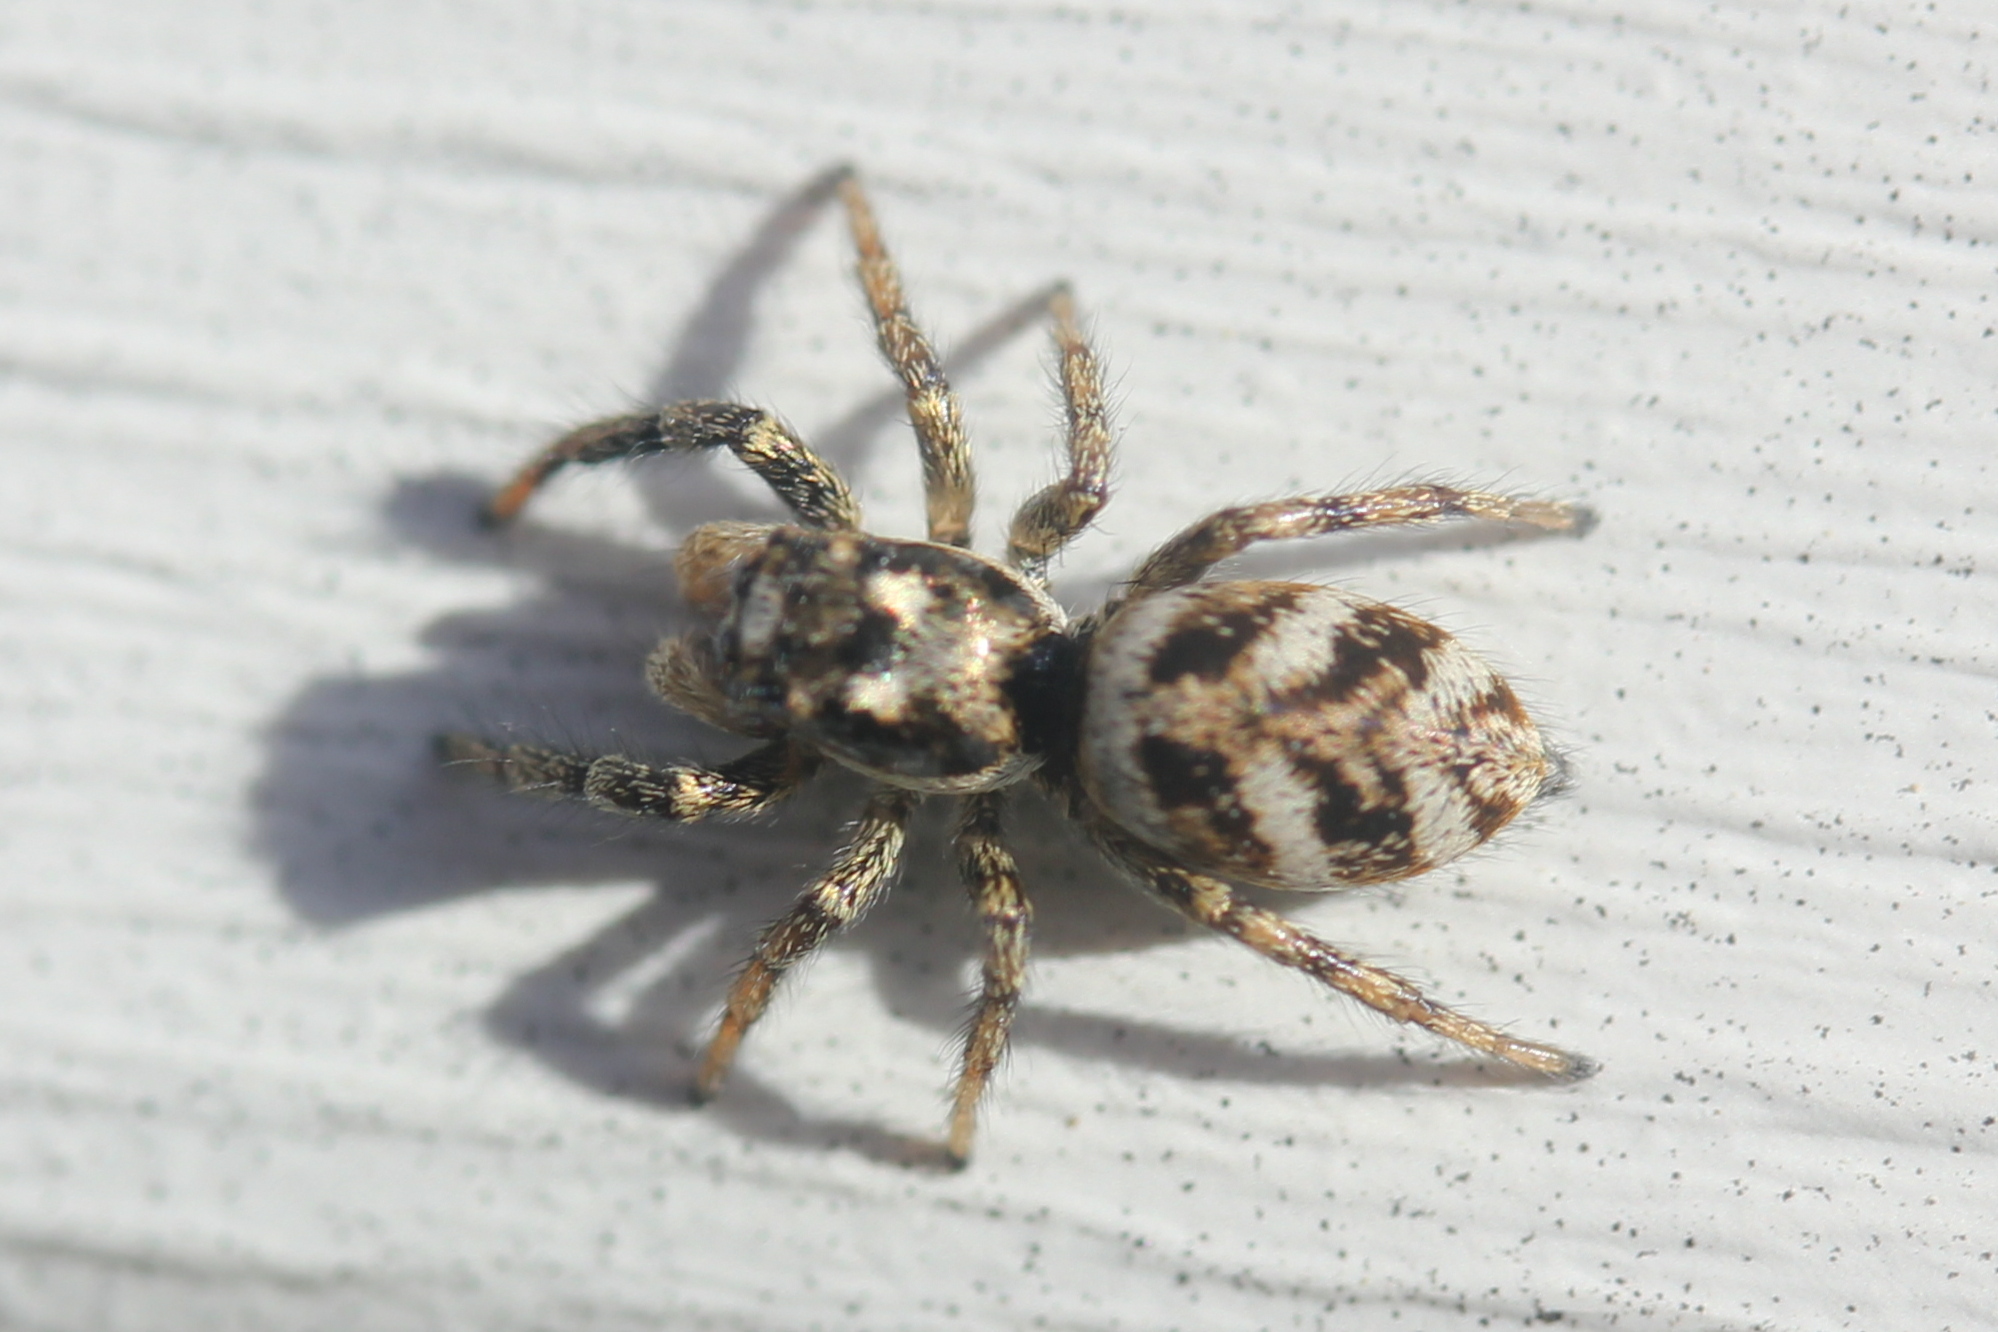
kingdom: Animalia
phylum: Arthropoda
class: Arachnida
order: Araneae
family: Salticidae
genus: Salticus
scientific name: Salticus scenicus
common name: Zebra jumper
